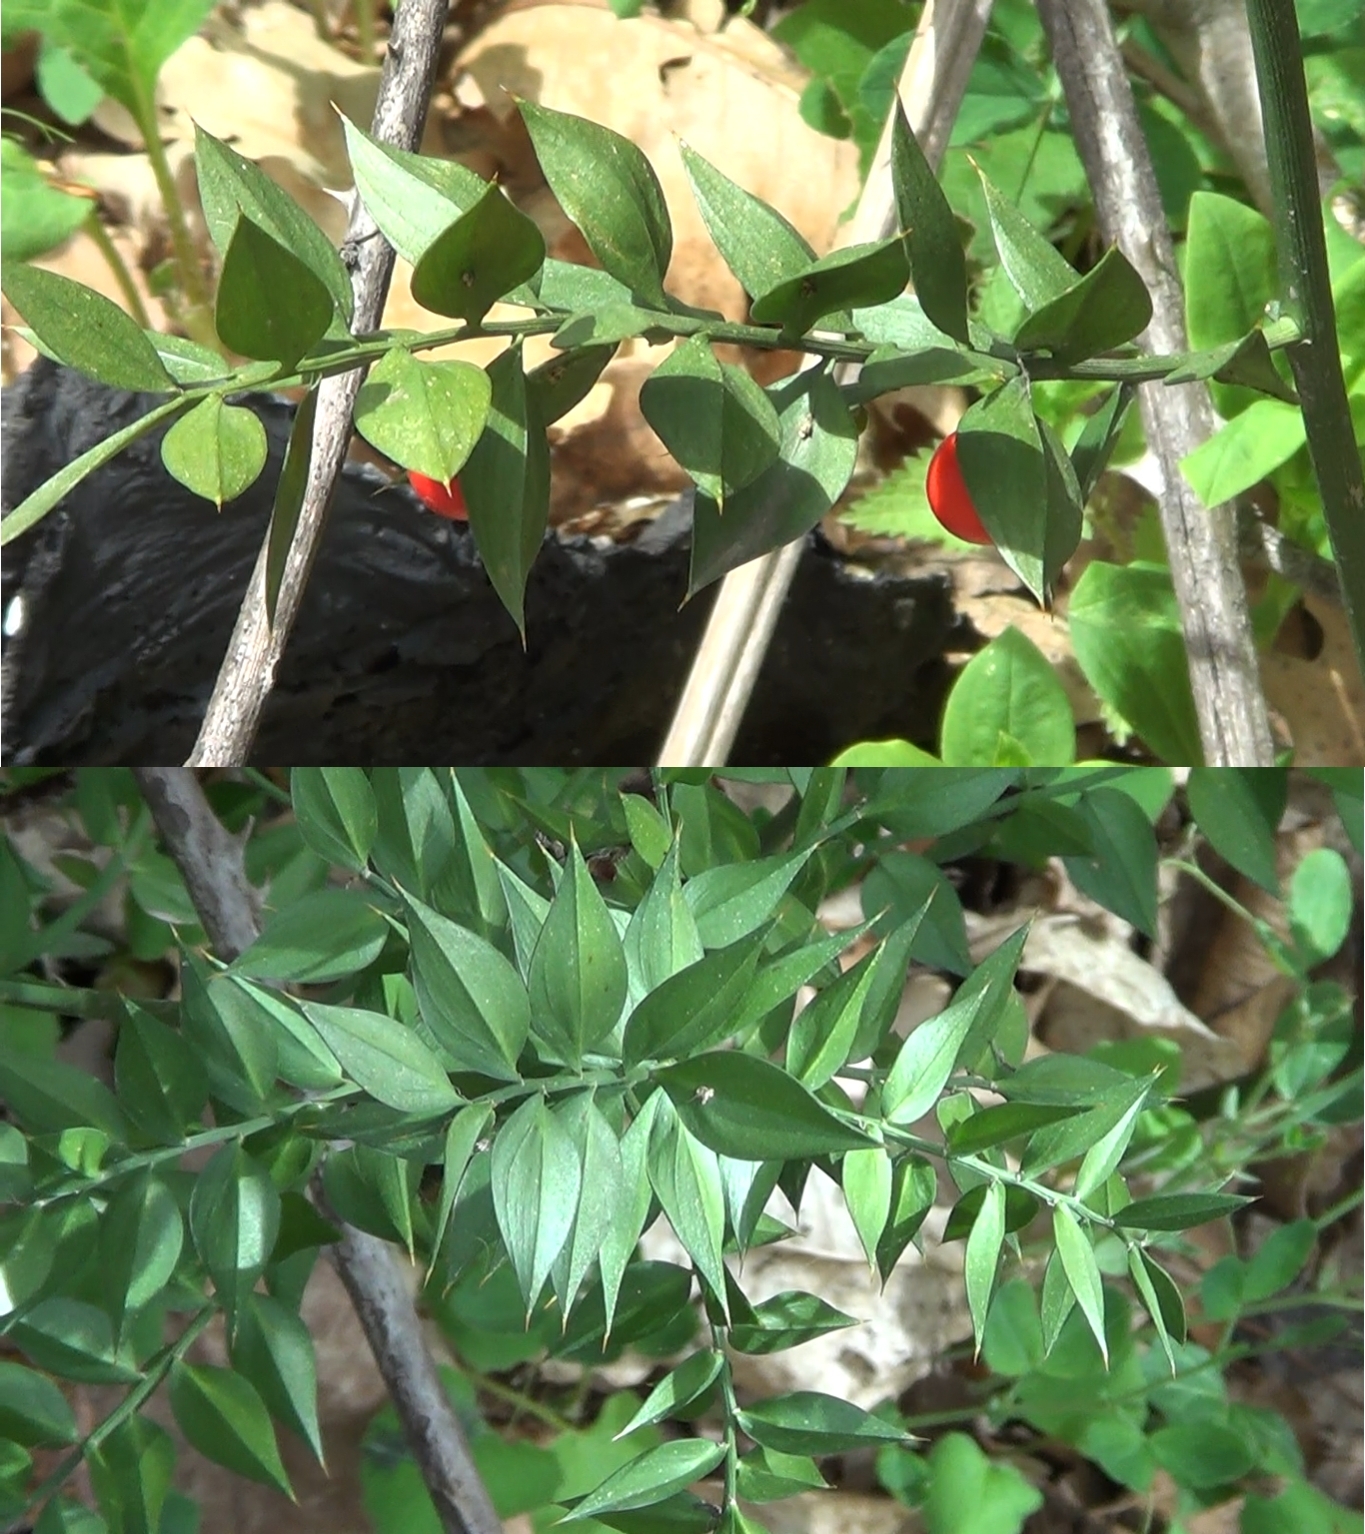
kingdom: Plantae
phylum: Tracheophyta
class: Liliopsida
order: Asparagales
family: Asparagaceae
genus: Ruscus
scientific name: Ruscus aculeatus
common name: Butcher's-broom
